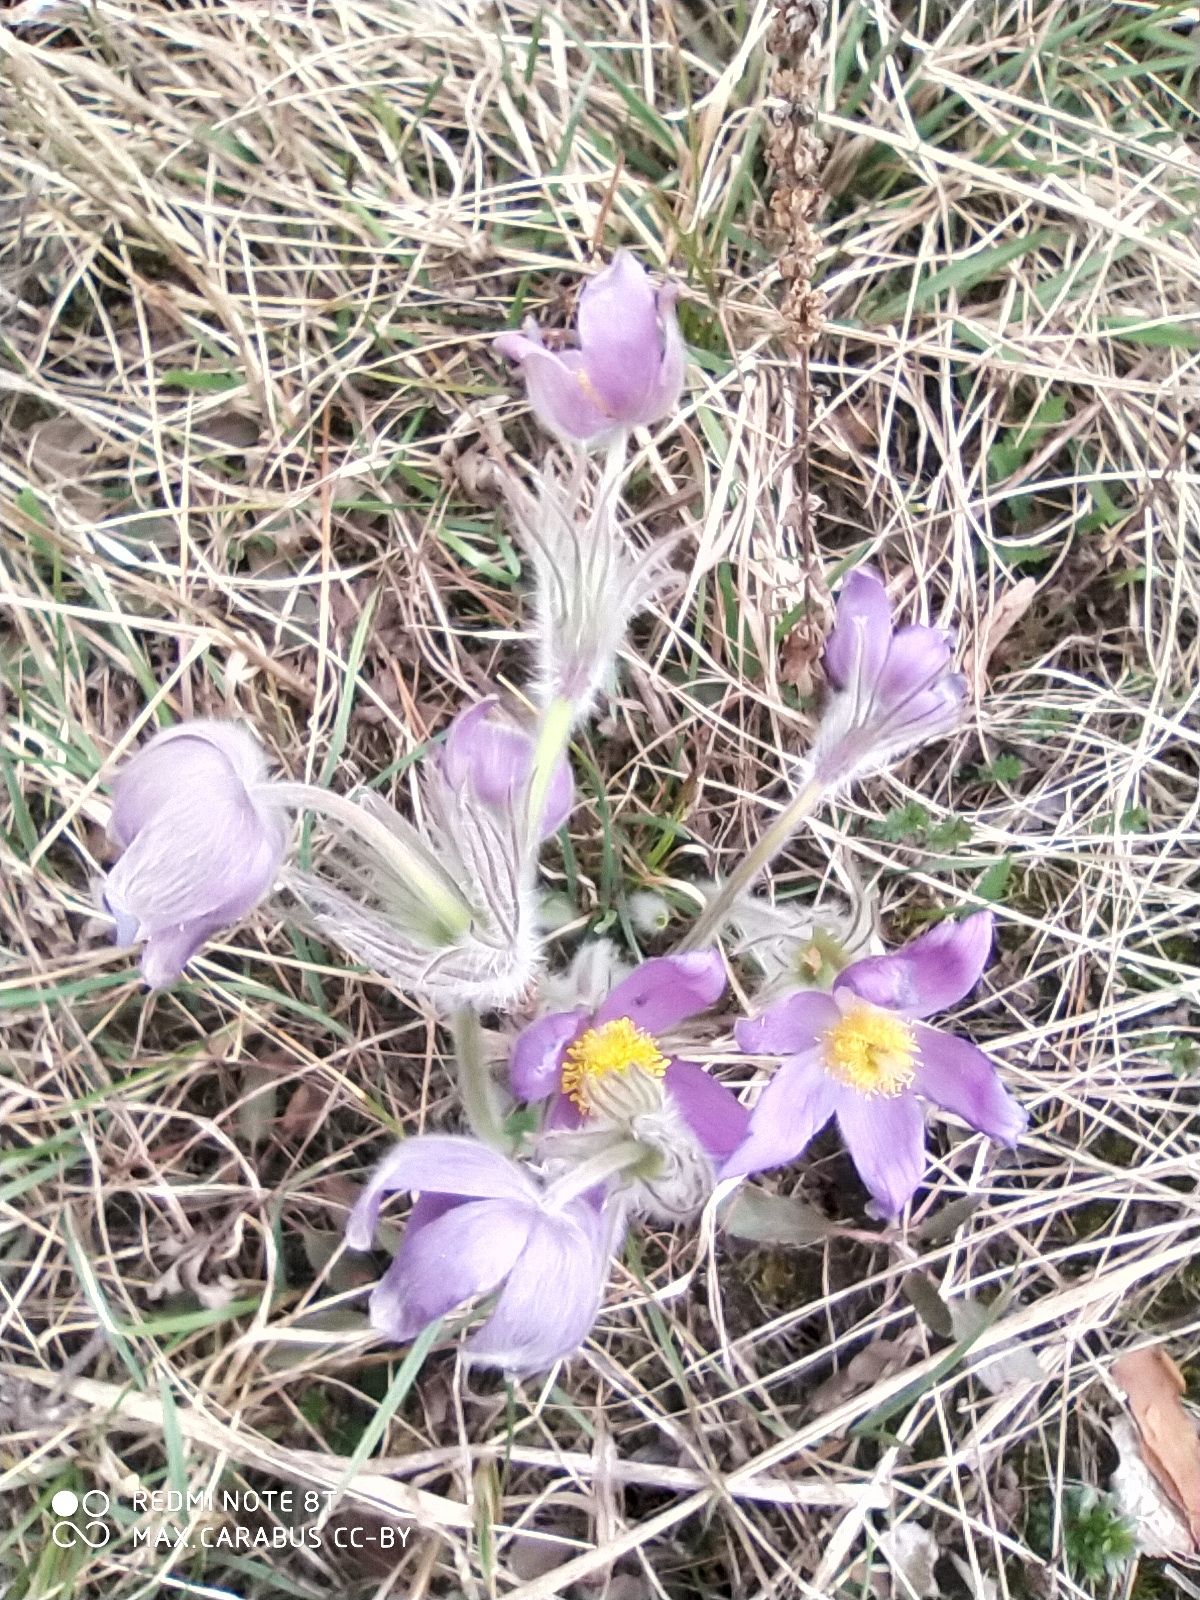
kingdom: Plantae
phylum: Tracheophyta
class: Magnoliopsida
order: Ranunculales
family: Ranunculaceae
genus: Pulsatilla
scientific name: Pulsatilla patens
